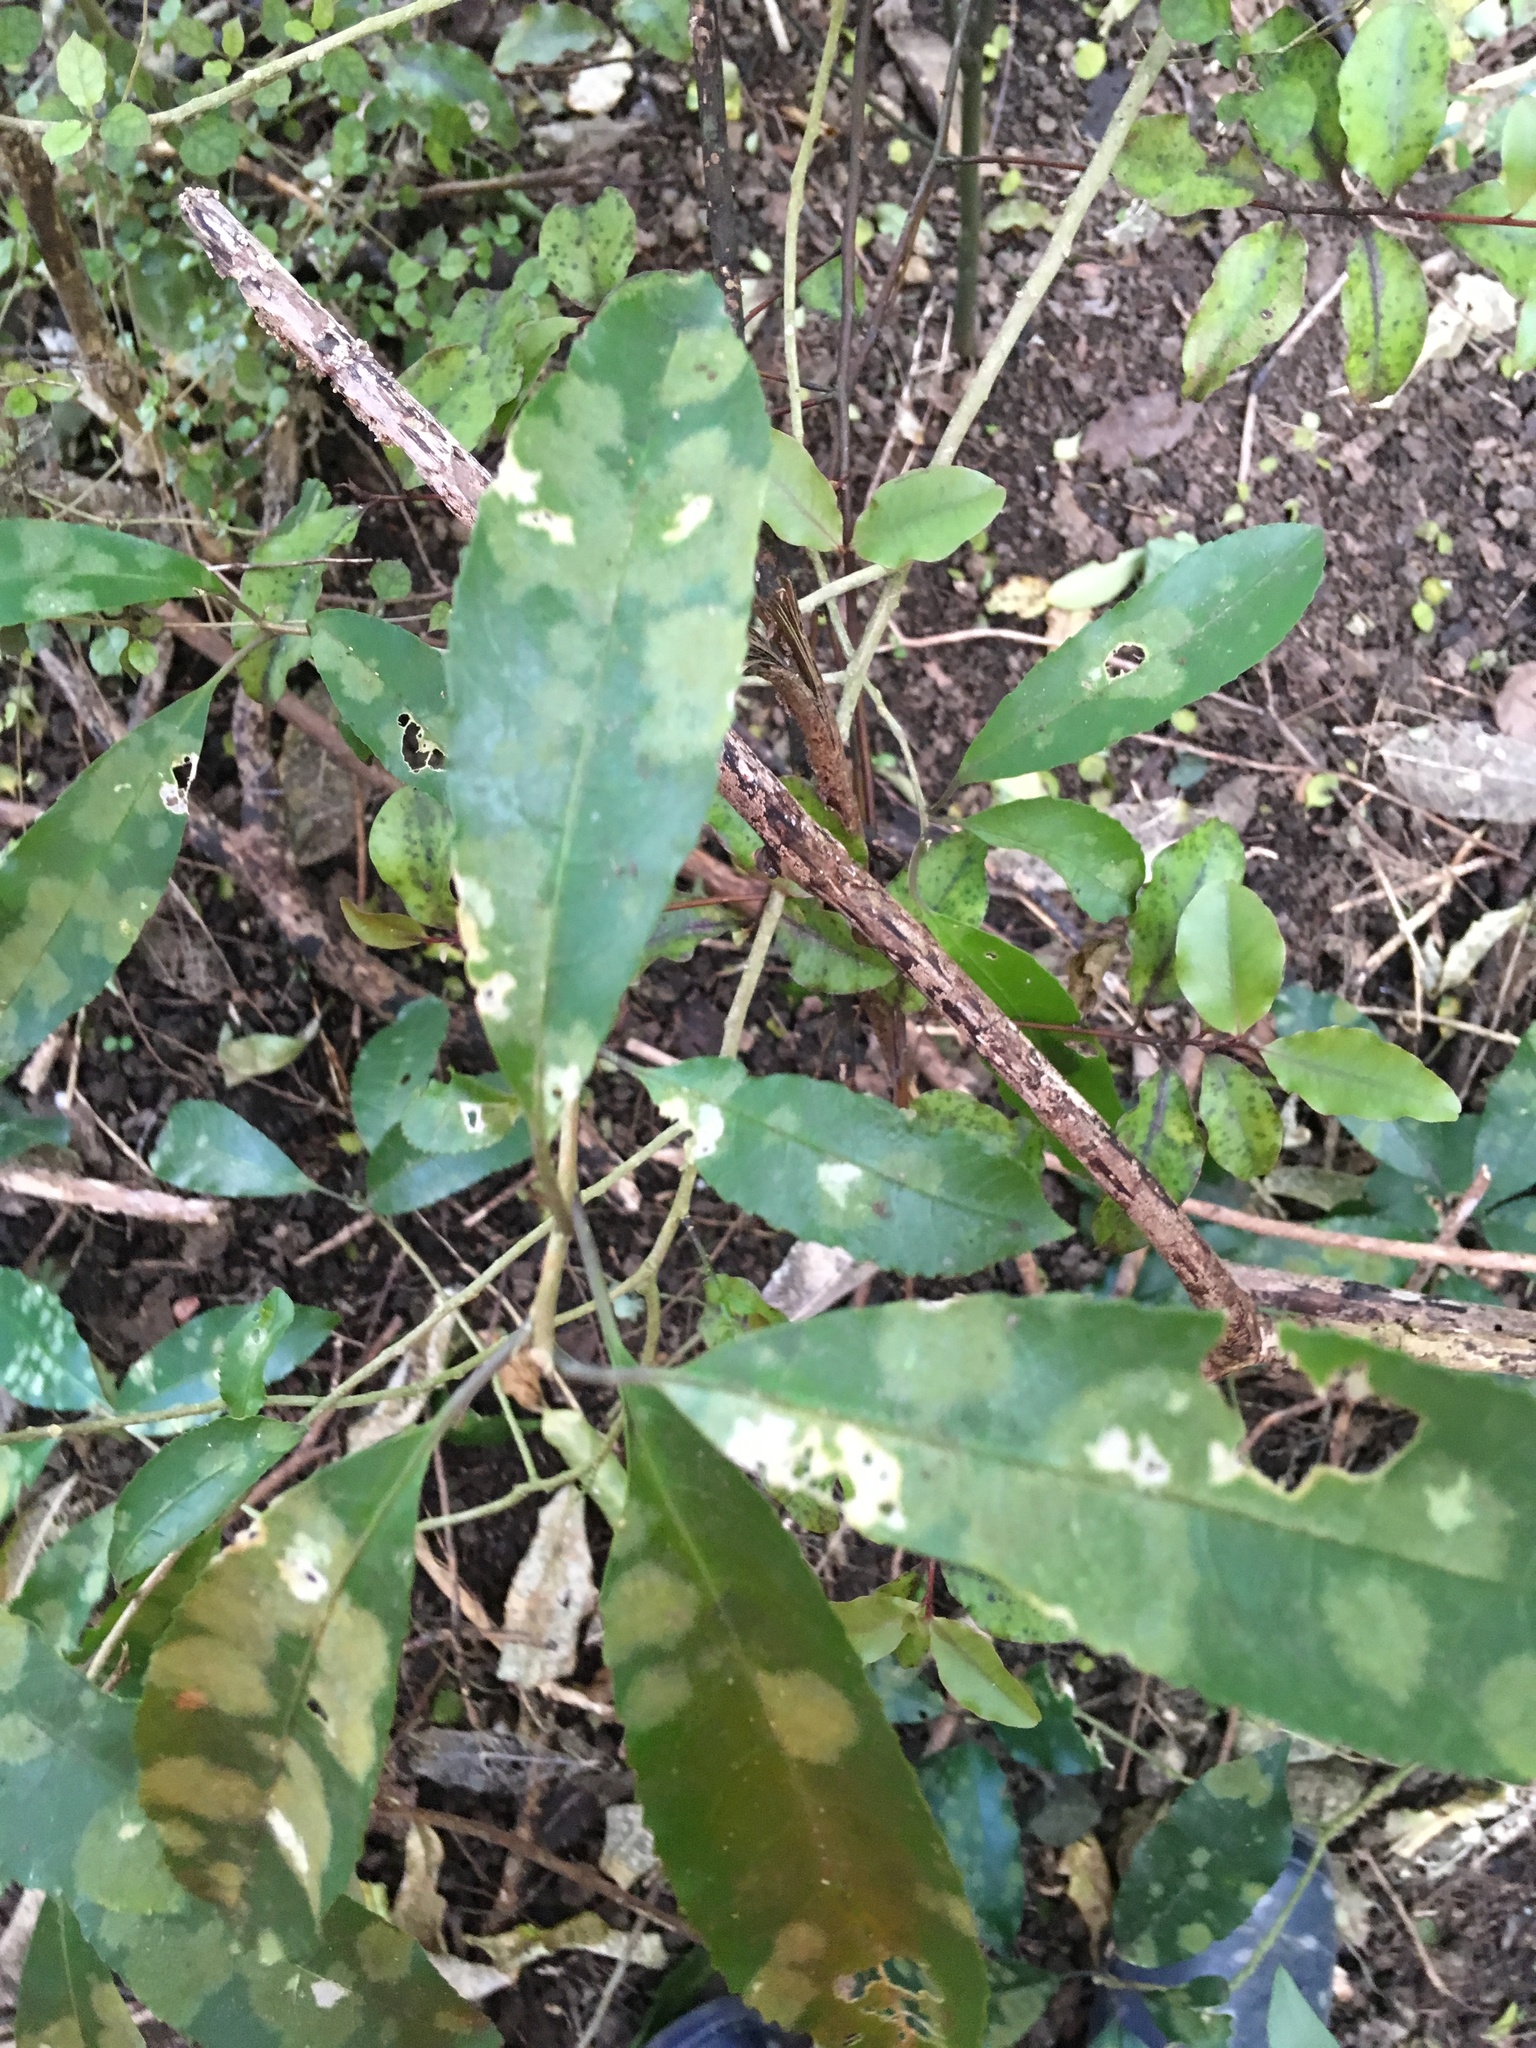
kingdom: Plantae
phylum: Tracheophyta
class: Magnoliopsida
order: Malpighiales
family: Violaceae
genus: Melicytus
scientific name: Melicytus ramiflorus
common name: Mahoe
